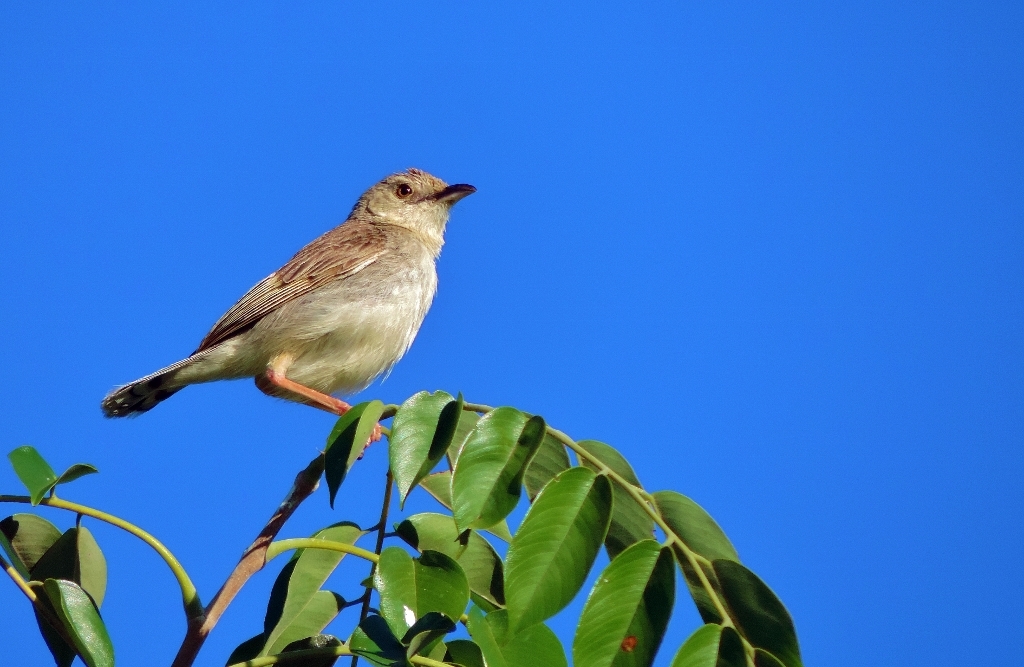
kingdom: Animalia
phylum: Chordata
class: Aves
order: Passeriformes
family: Cisticolidae
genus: Cisticola
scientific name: Cisticola natalensis
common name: Croaking cisticola
